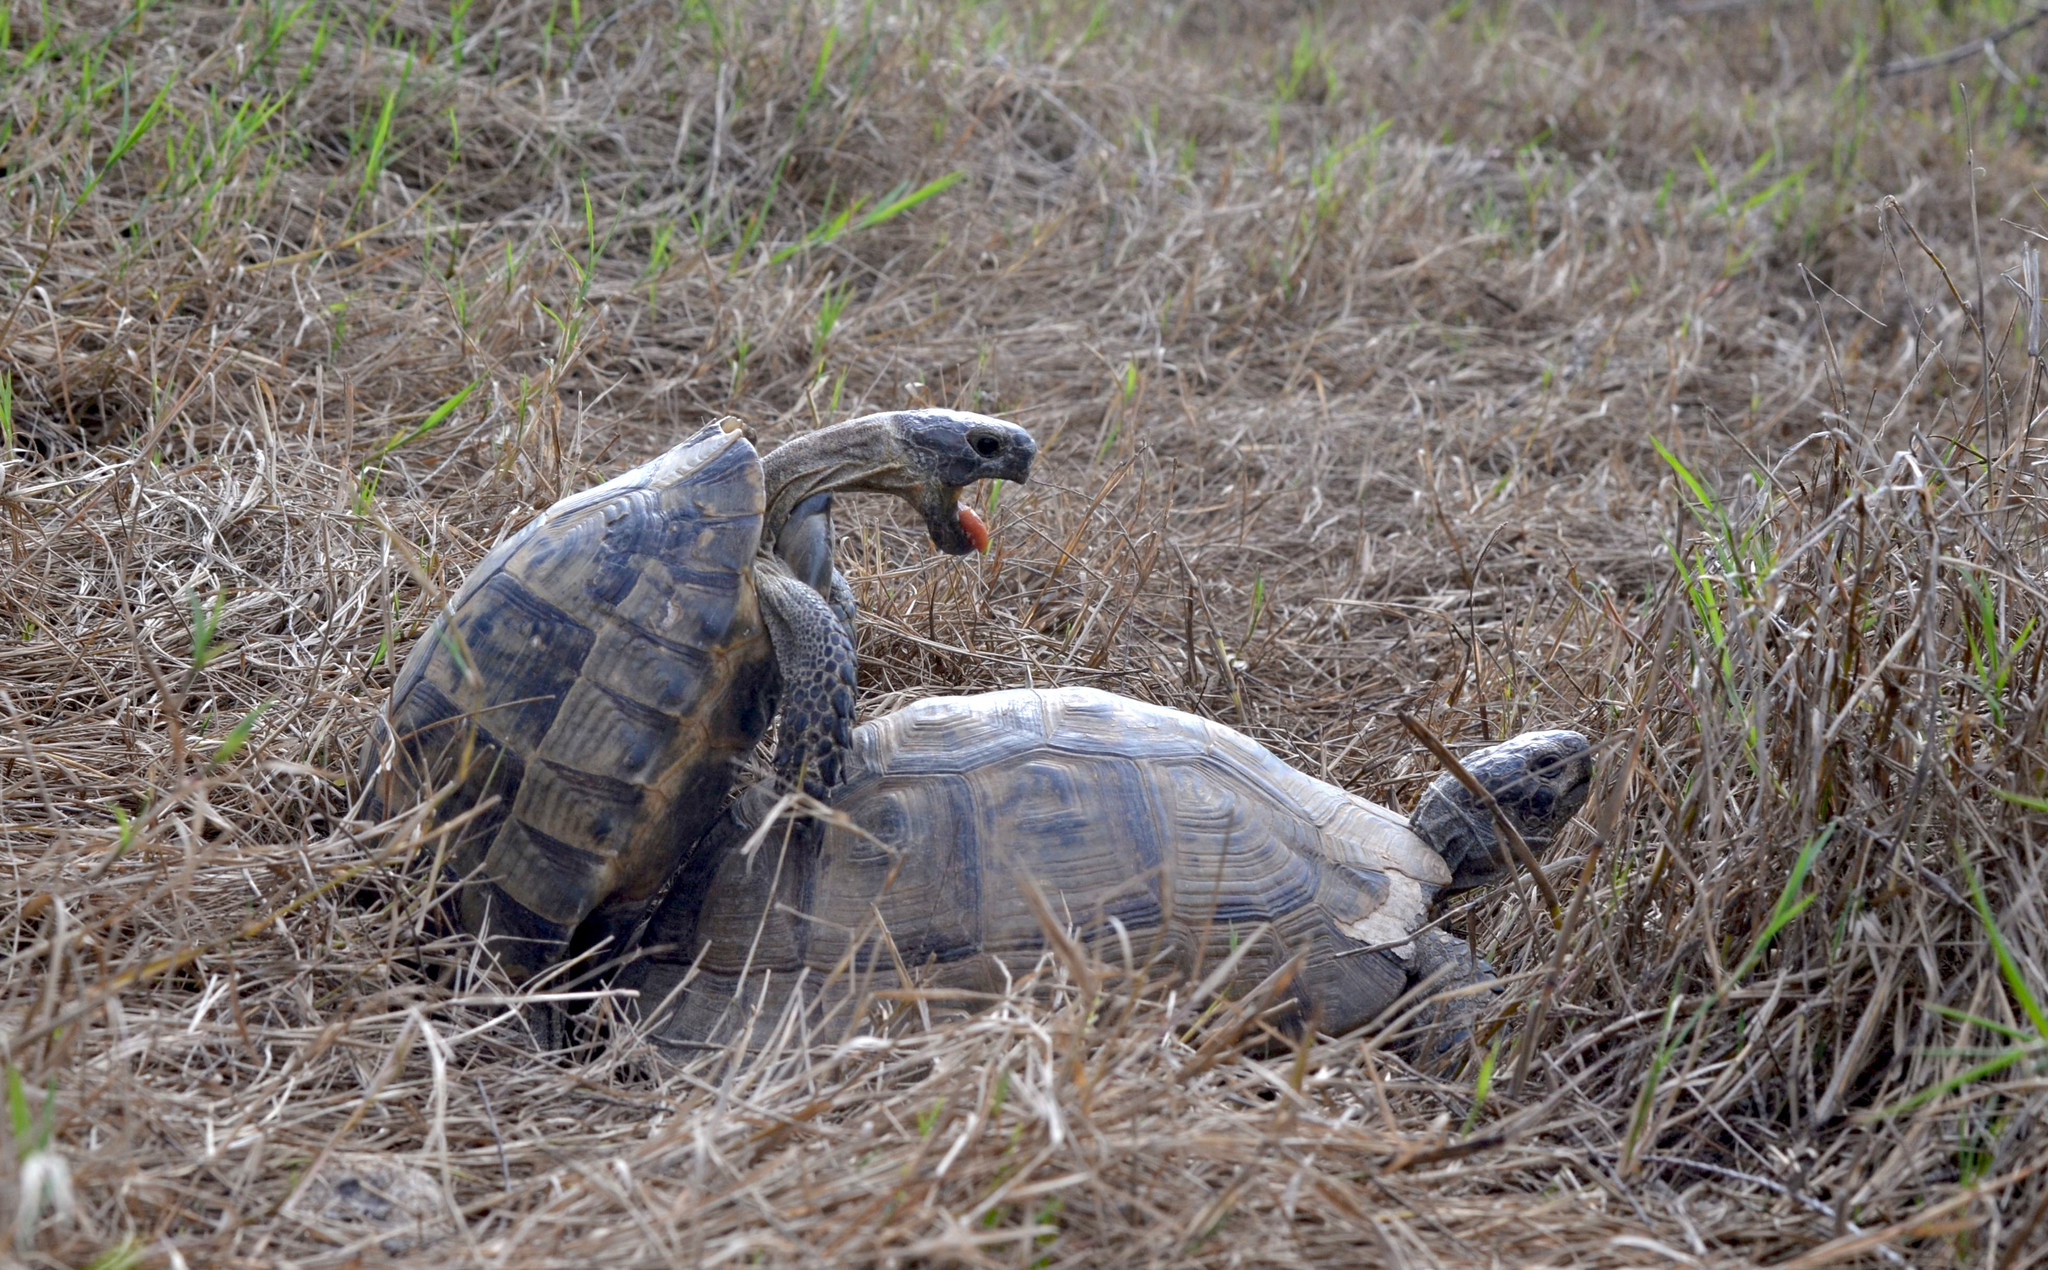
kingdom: Animalia
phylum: Chordata
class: Testudines
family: Testudinidae
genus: Testudo
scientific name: Testudo graeca
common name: Common tortoise
